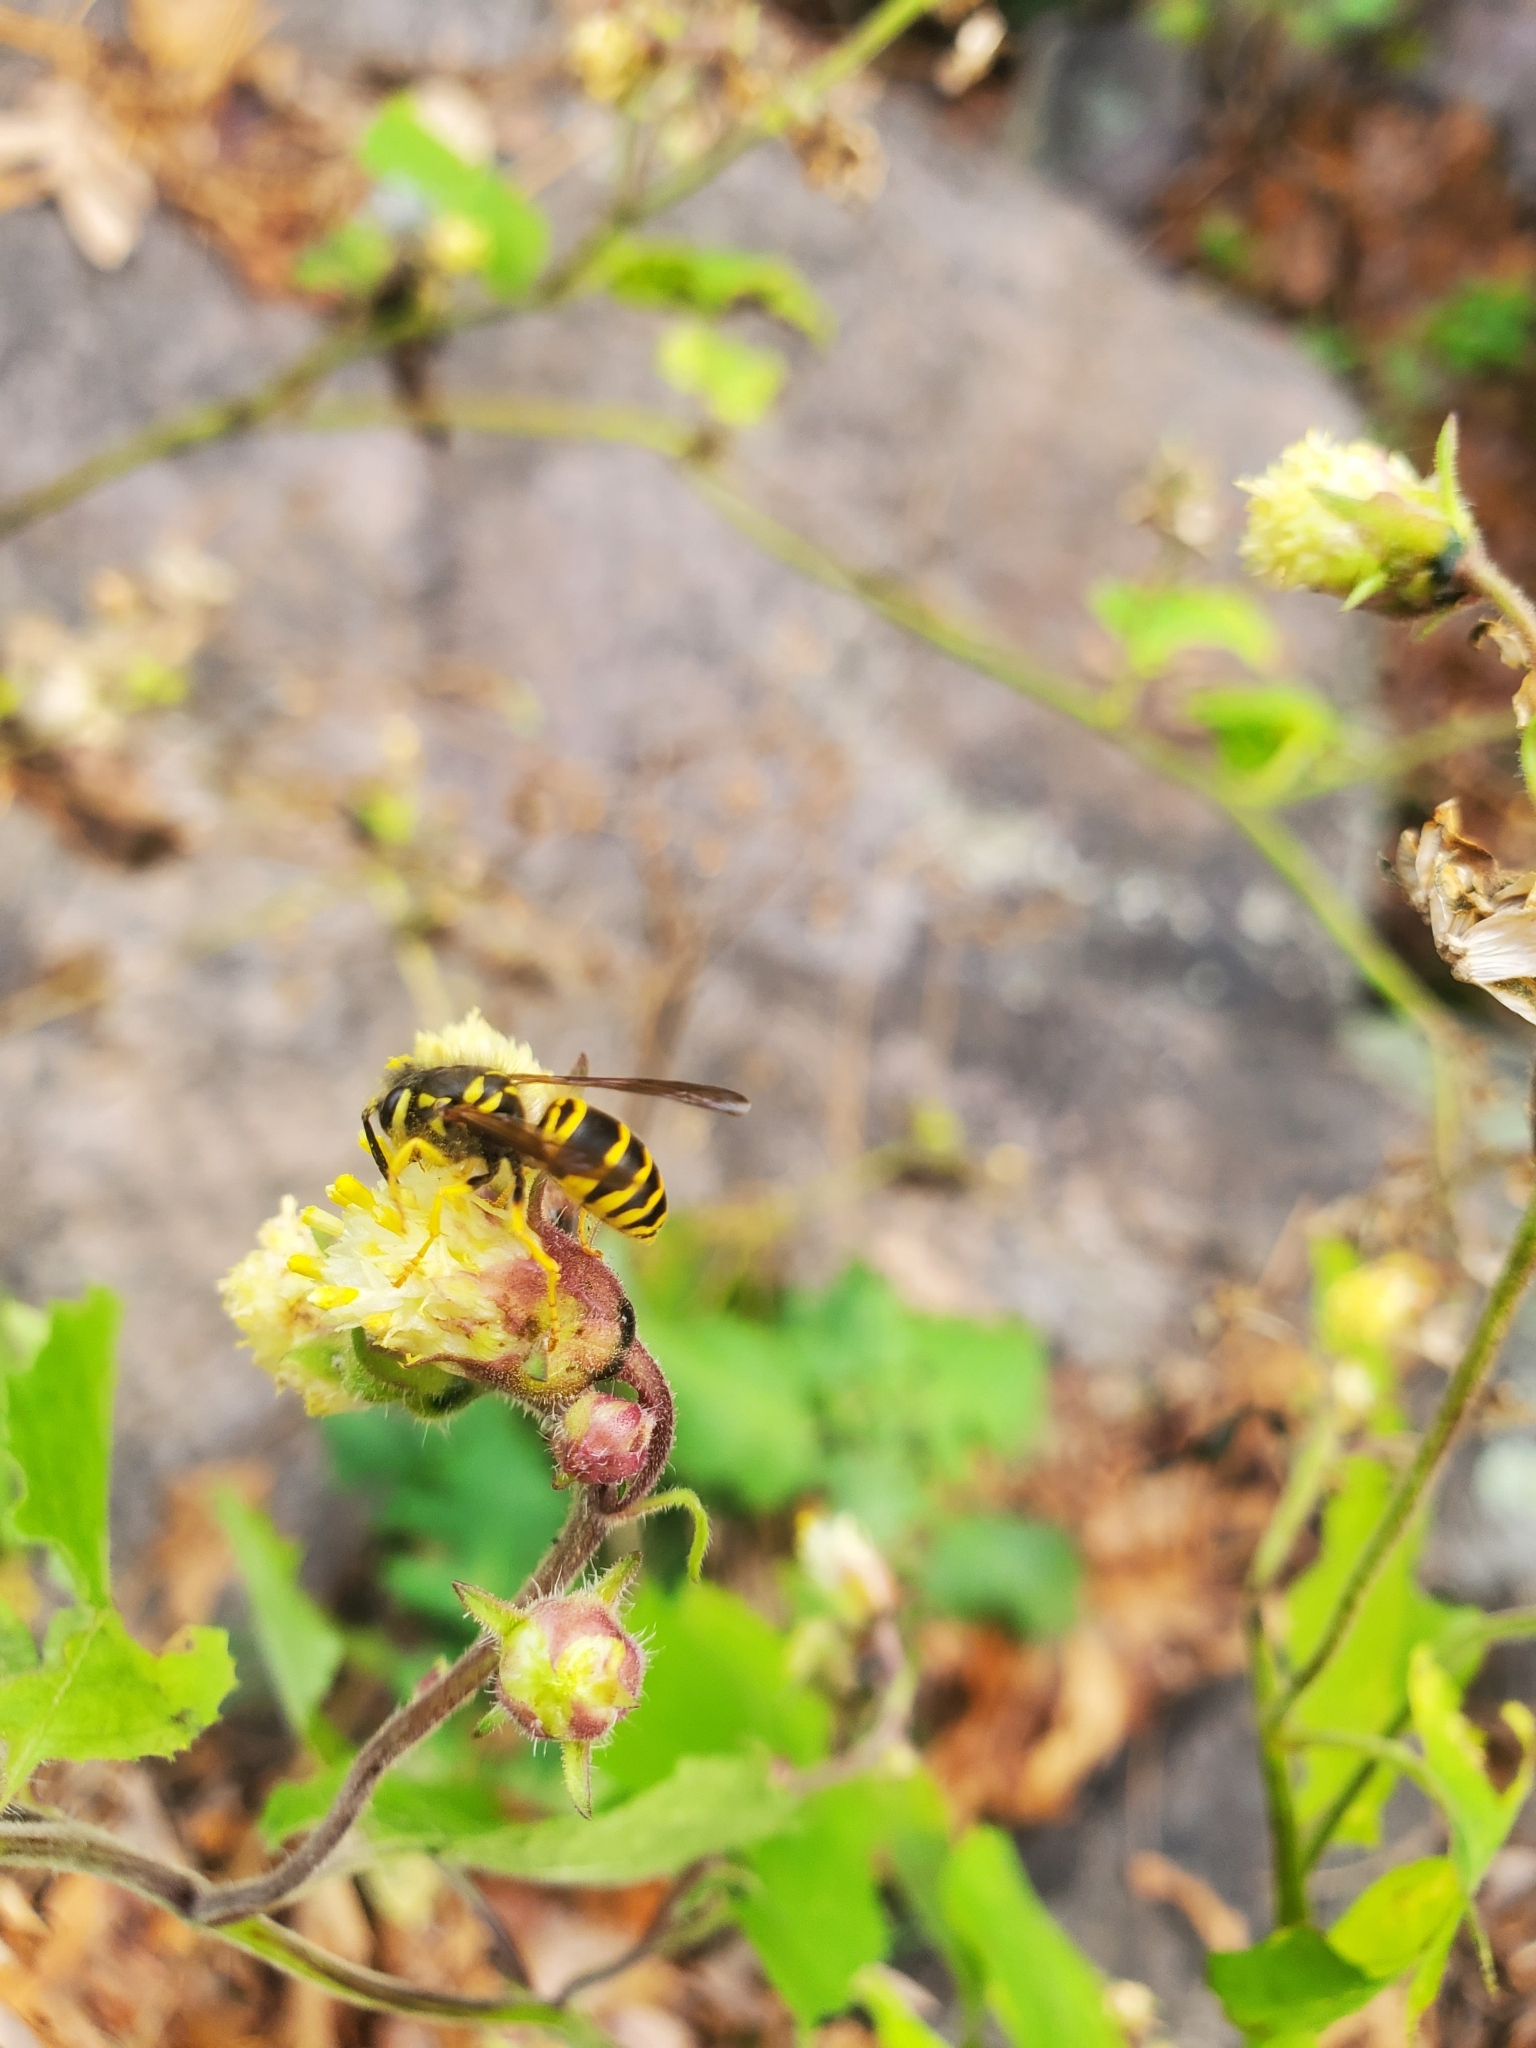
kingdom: Animalia
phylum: Arthropoda
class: Insecta
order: Hymenoptera
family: Vespidae
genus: Vespula
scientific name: Vespula maculifrons
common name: Eastern yellowjacket
